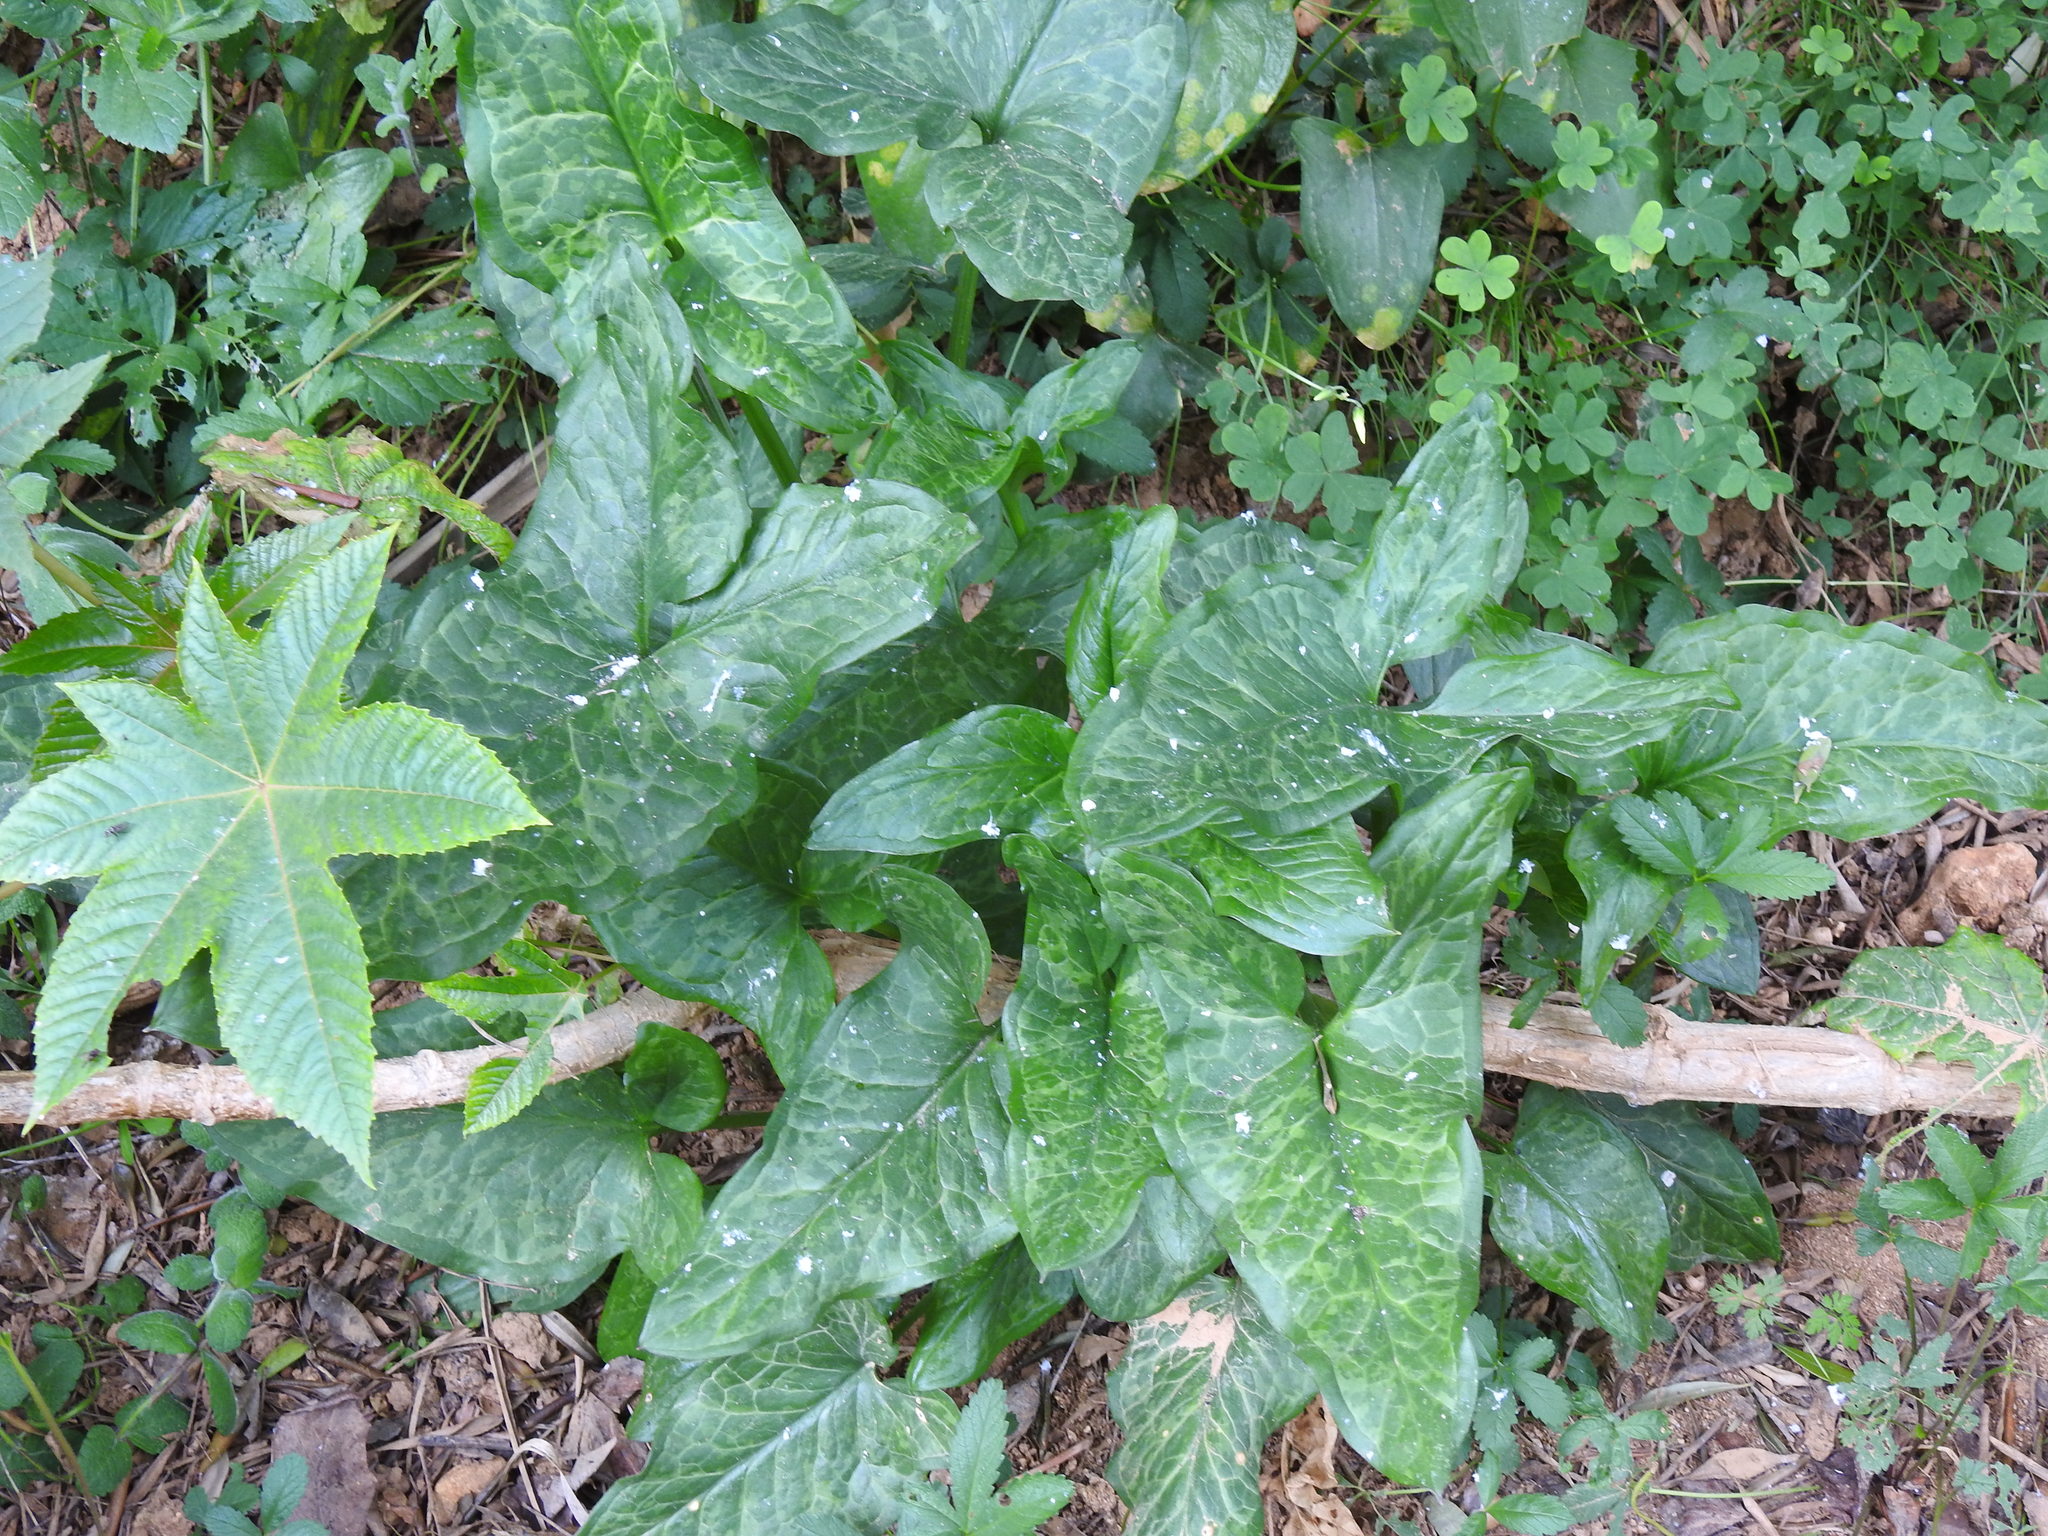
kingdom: Plantae
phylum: Tracheophyta
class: Liliopsida
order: Alismatales
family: Araceae
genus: Arum
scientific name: Arum italicum
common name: Italian lords-and-ladies
